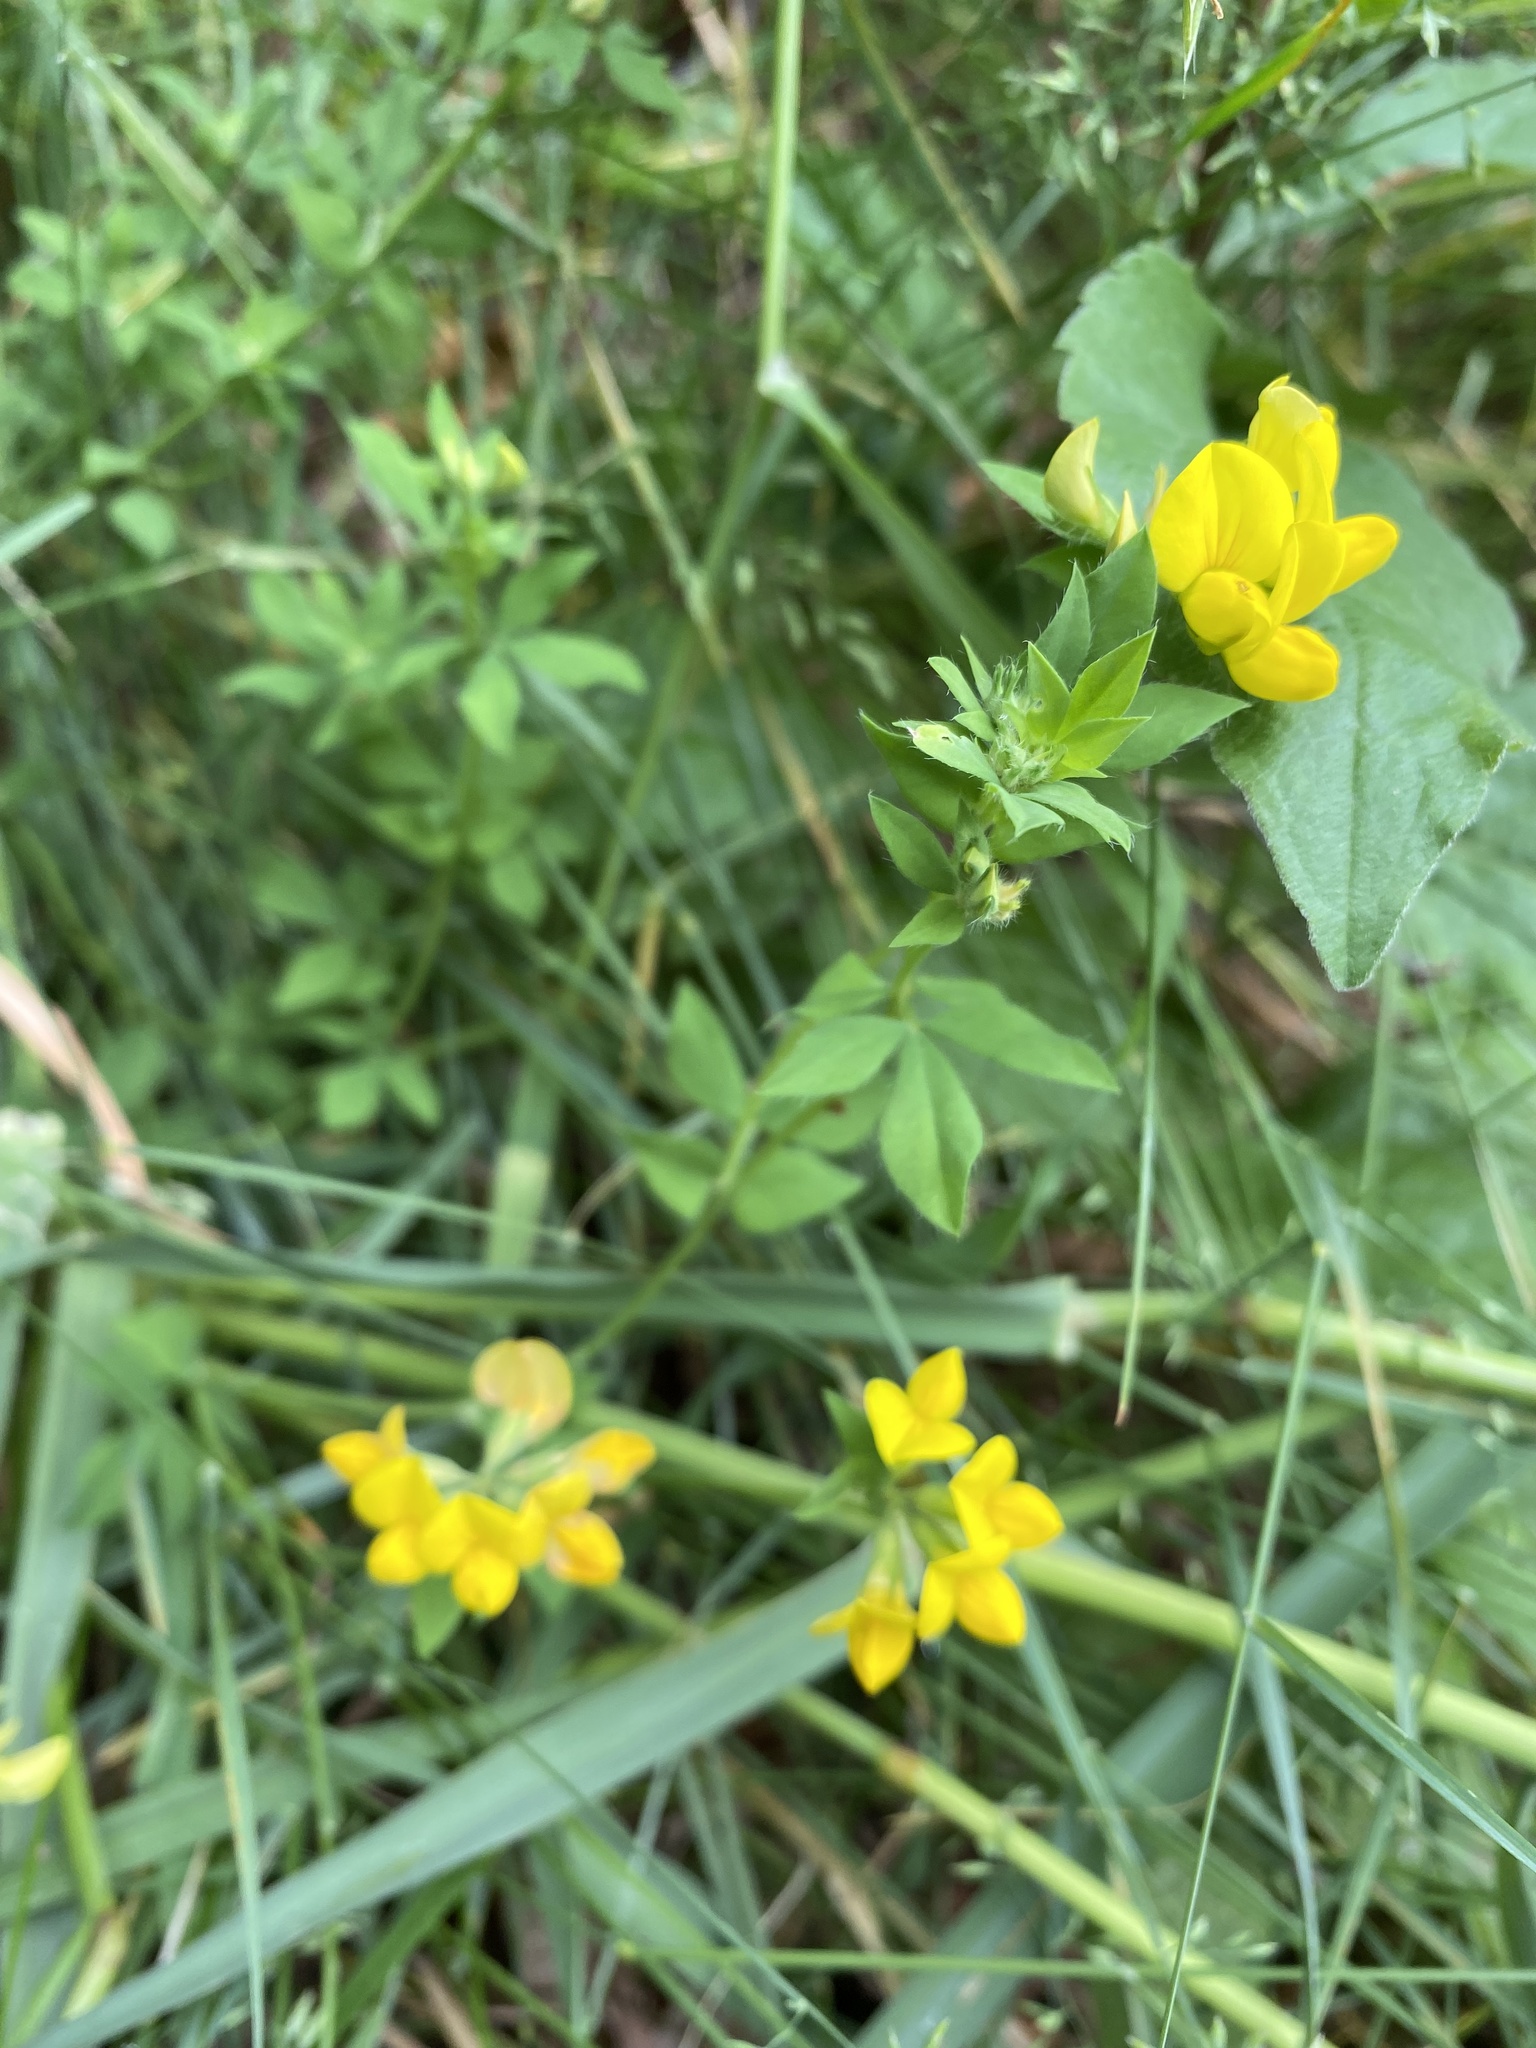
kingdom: Plantae
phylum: Tracheophyta
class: Magnoliopsida
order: Fabales
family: Fabaceae
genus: Lotus
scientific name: Lotus corniculatus
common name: Common bird's-foot-trefoil
